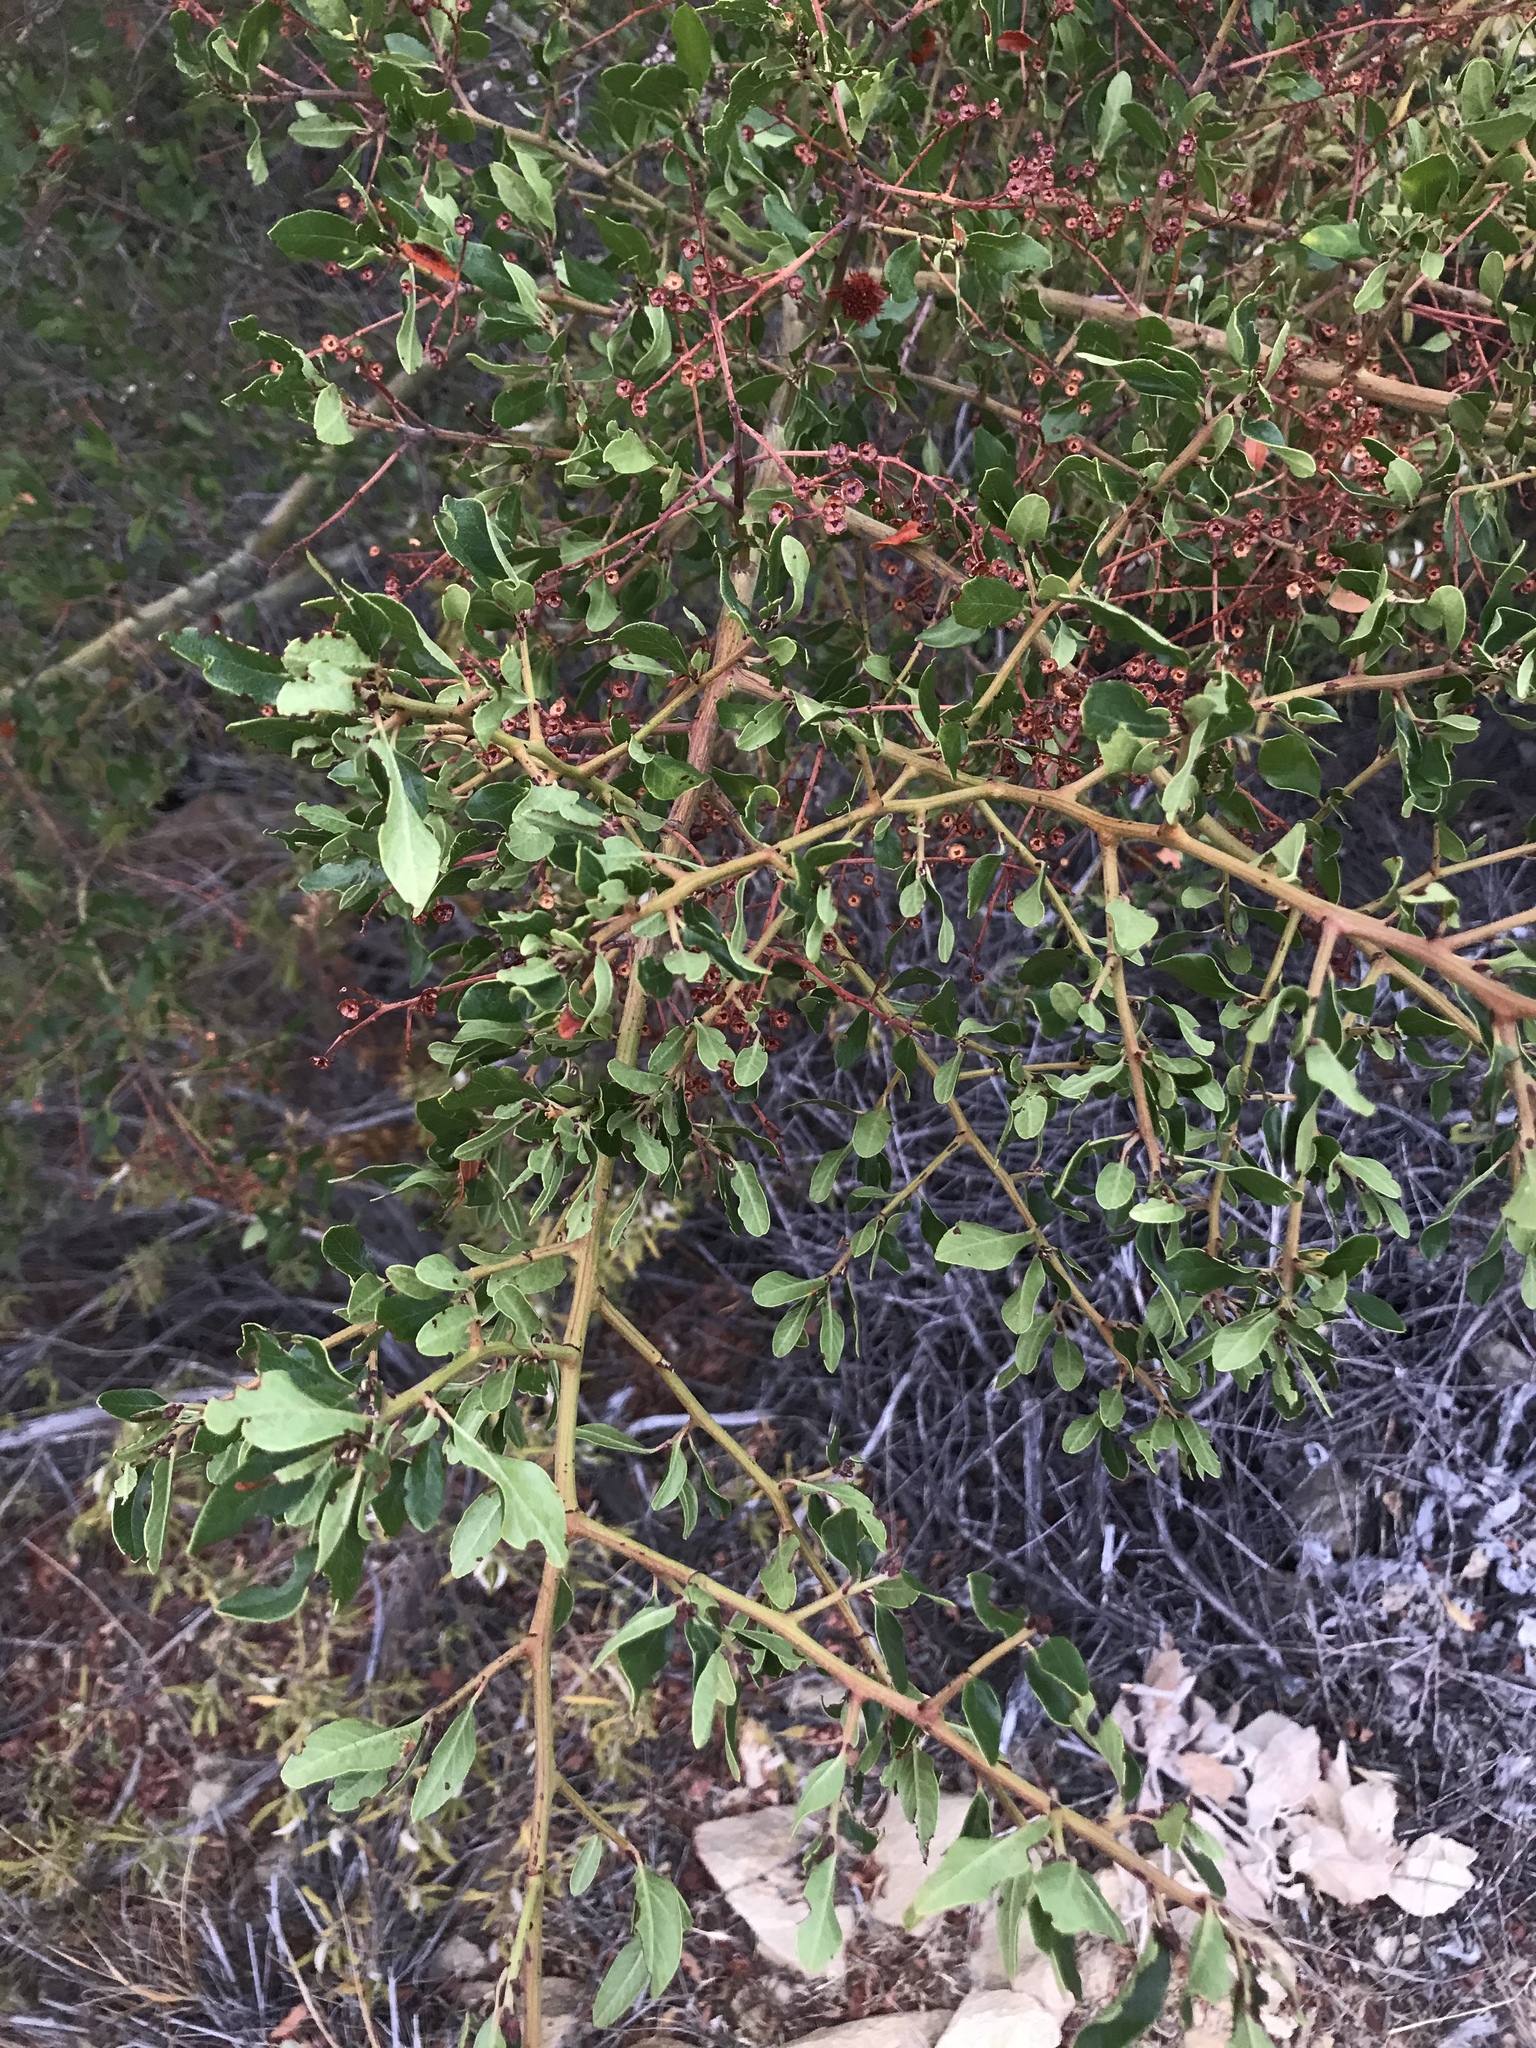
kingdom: Plantae
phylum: Tracheophyta
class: Magnoliopsida
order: Rosales
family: Rhamnaceae
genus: Ceanothus
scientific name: Ceanothus spinosus
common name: Greenbark whitethorn
